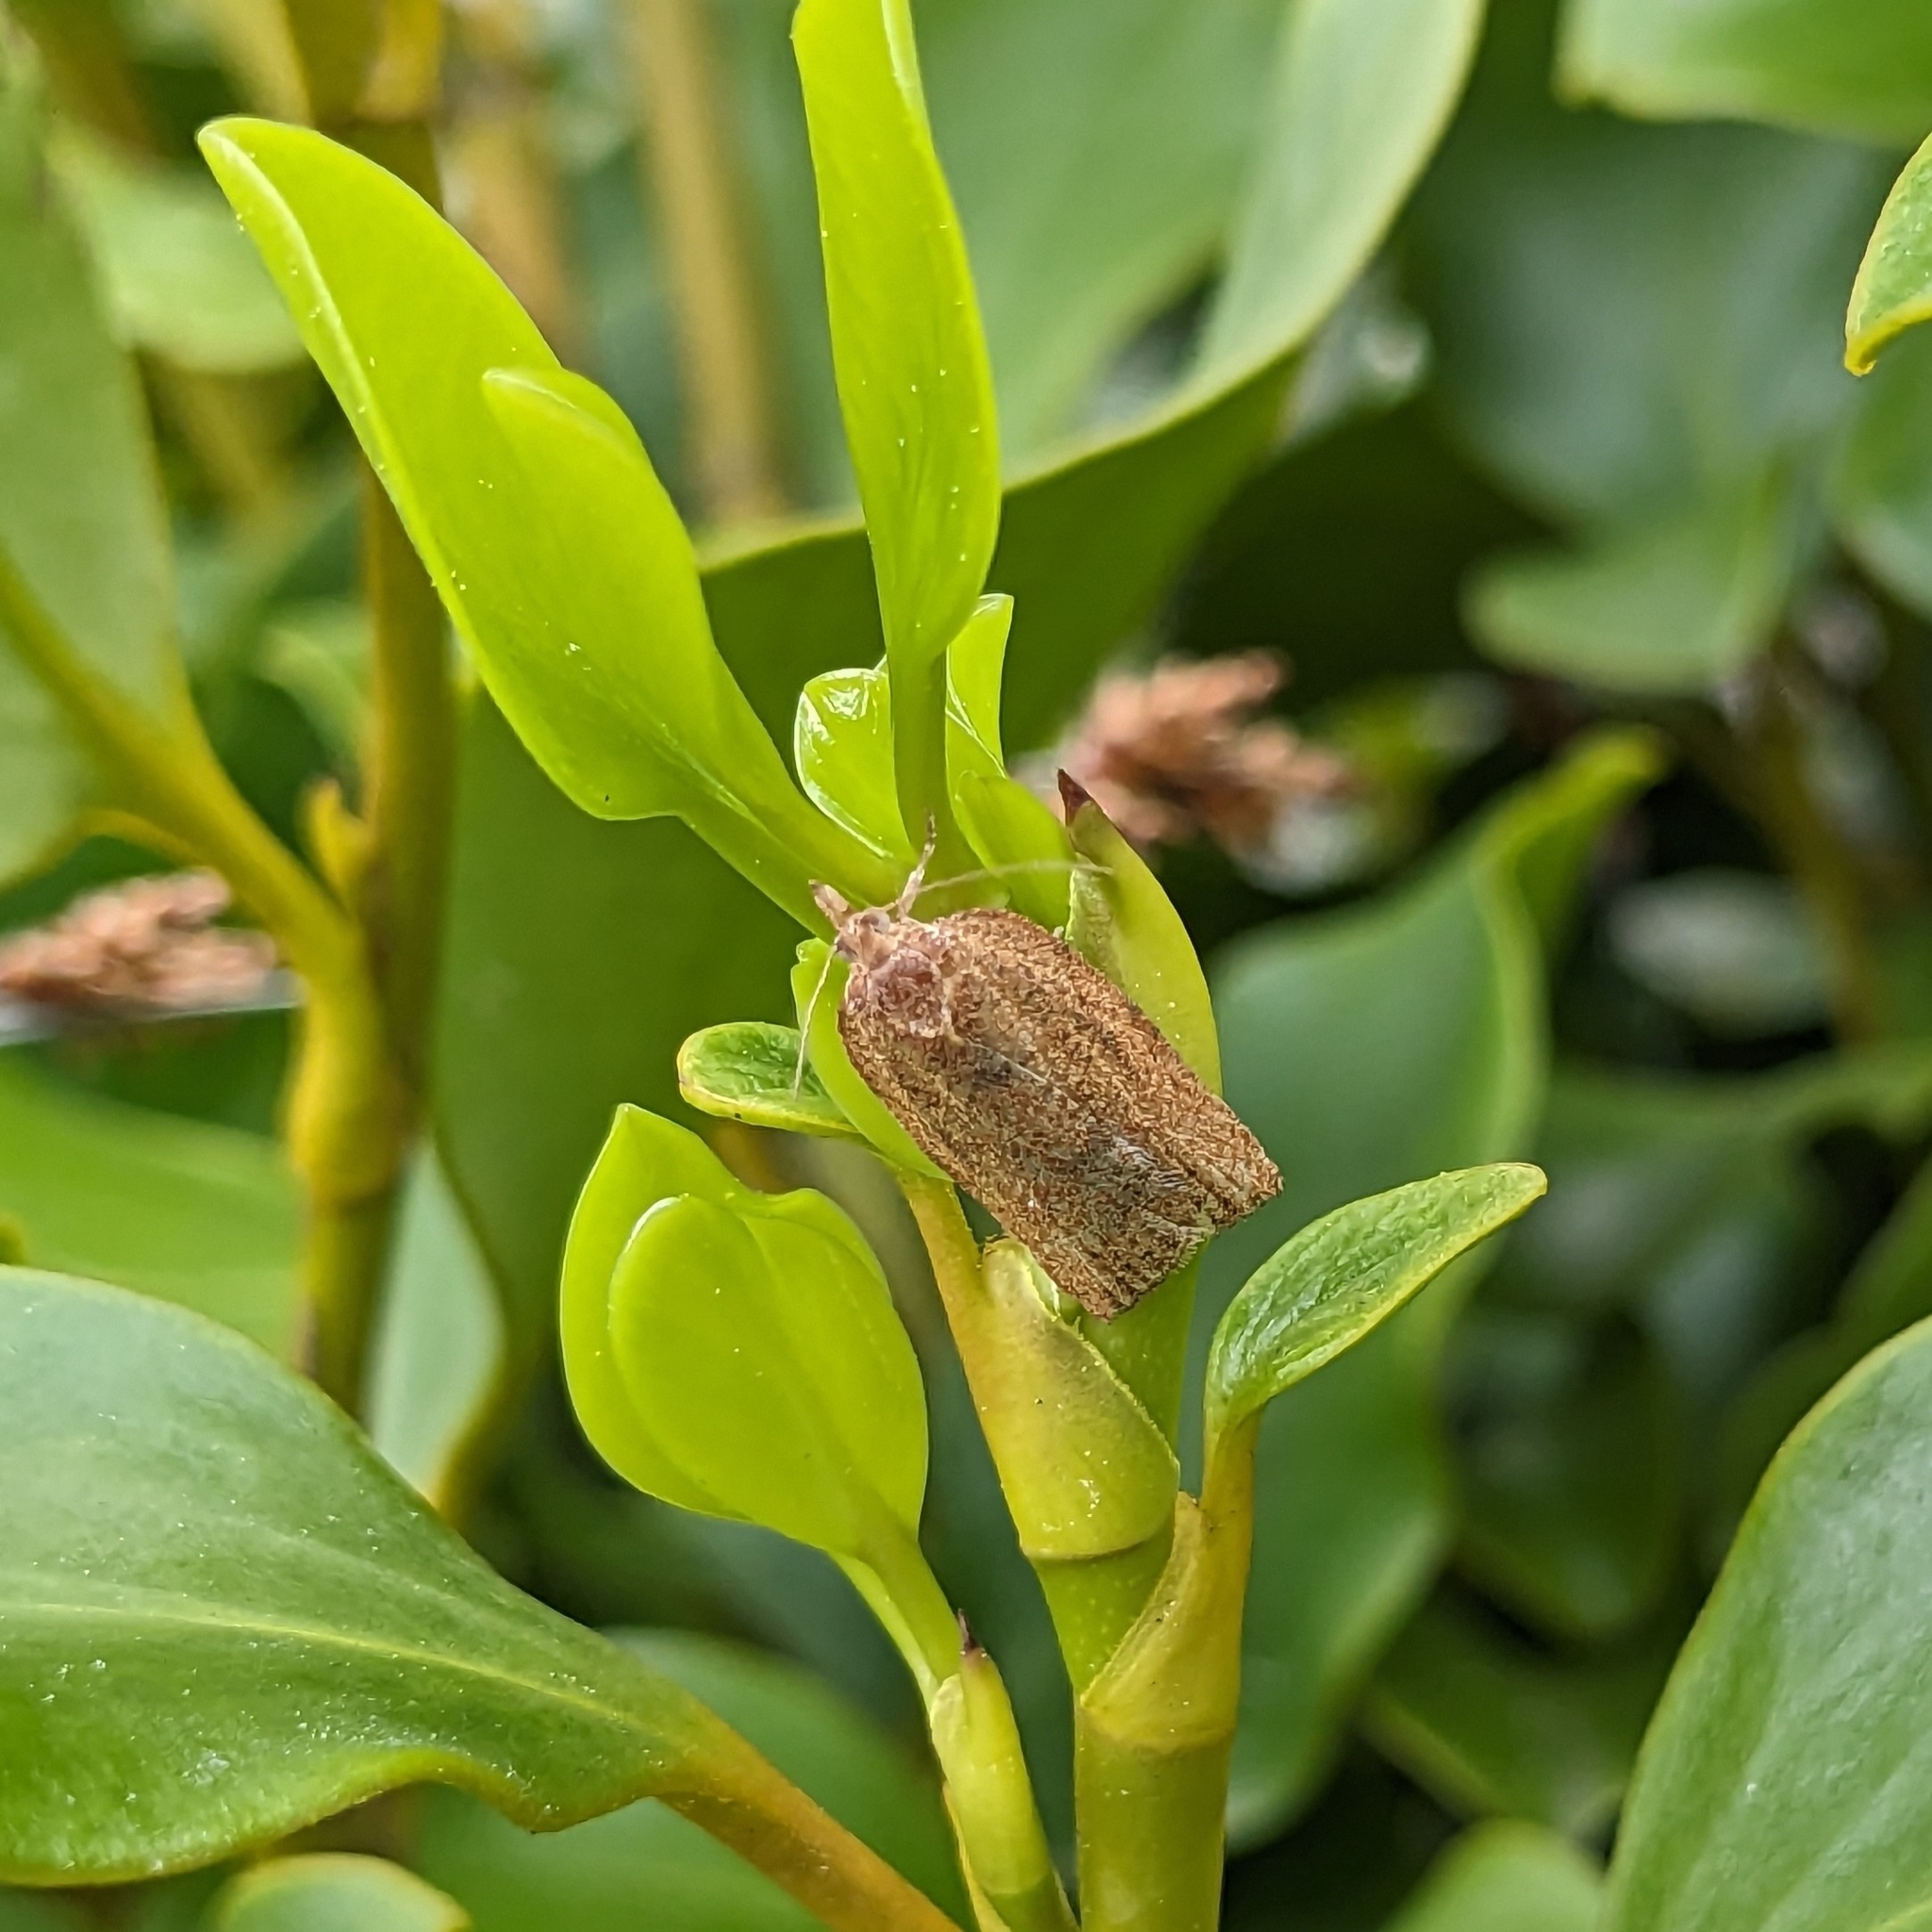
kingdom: Animalia
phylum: Arthropoda
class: Insecta
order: Lepidoptera
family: Tortricidae
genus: Epiphyas
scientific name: Epiphyas postvittana
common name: Light brown apple moth
